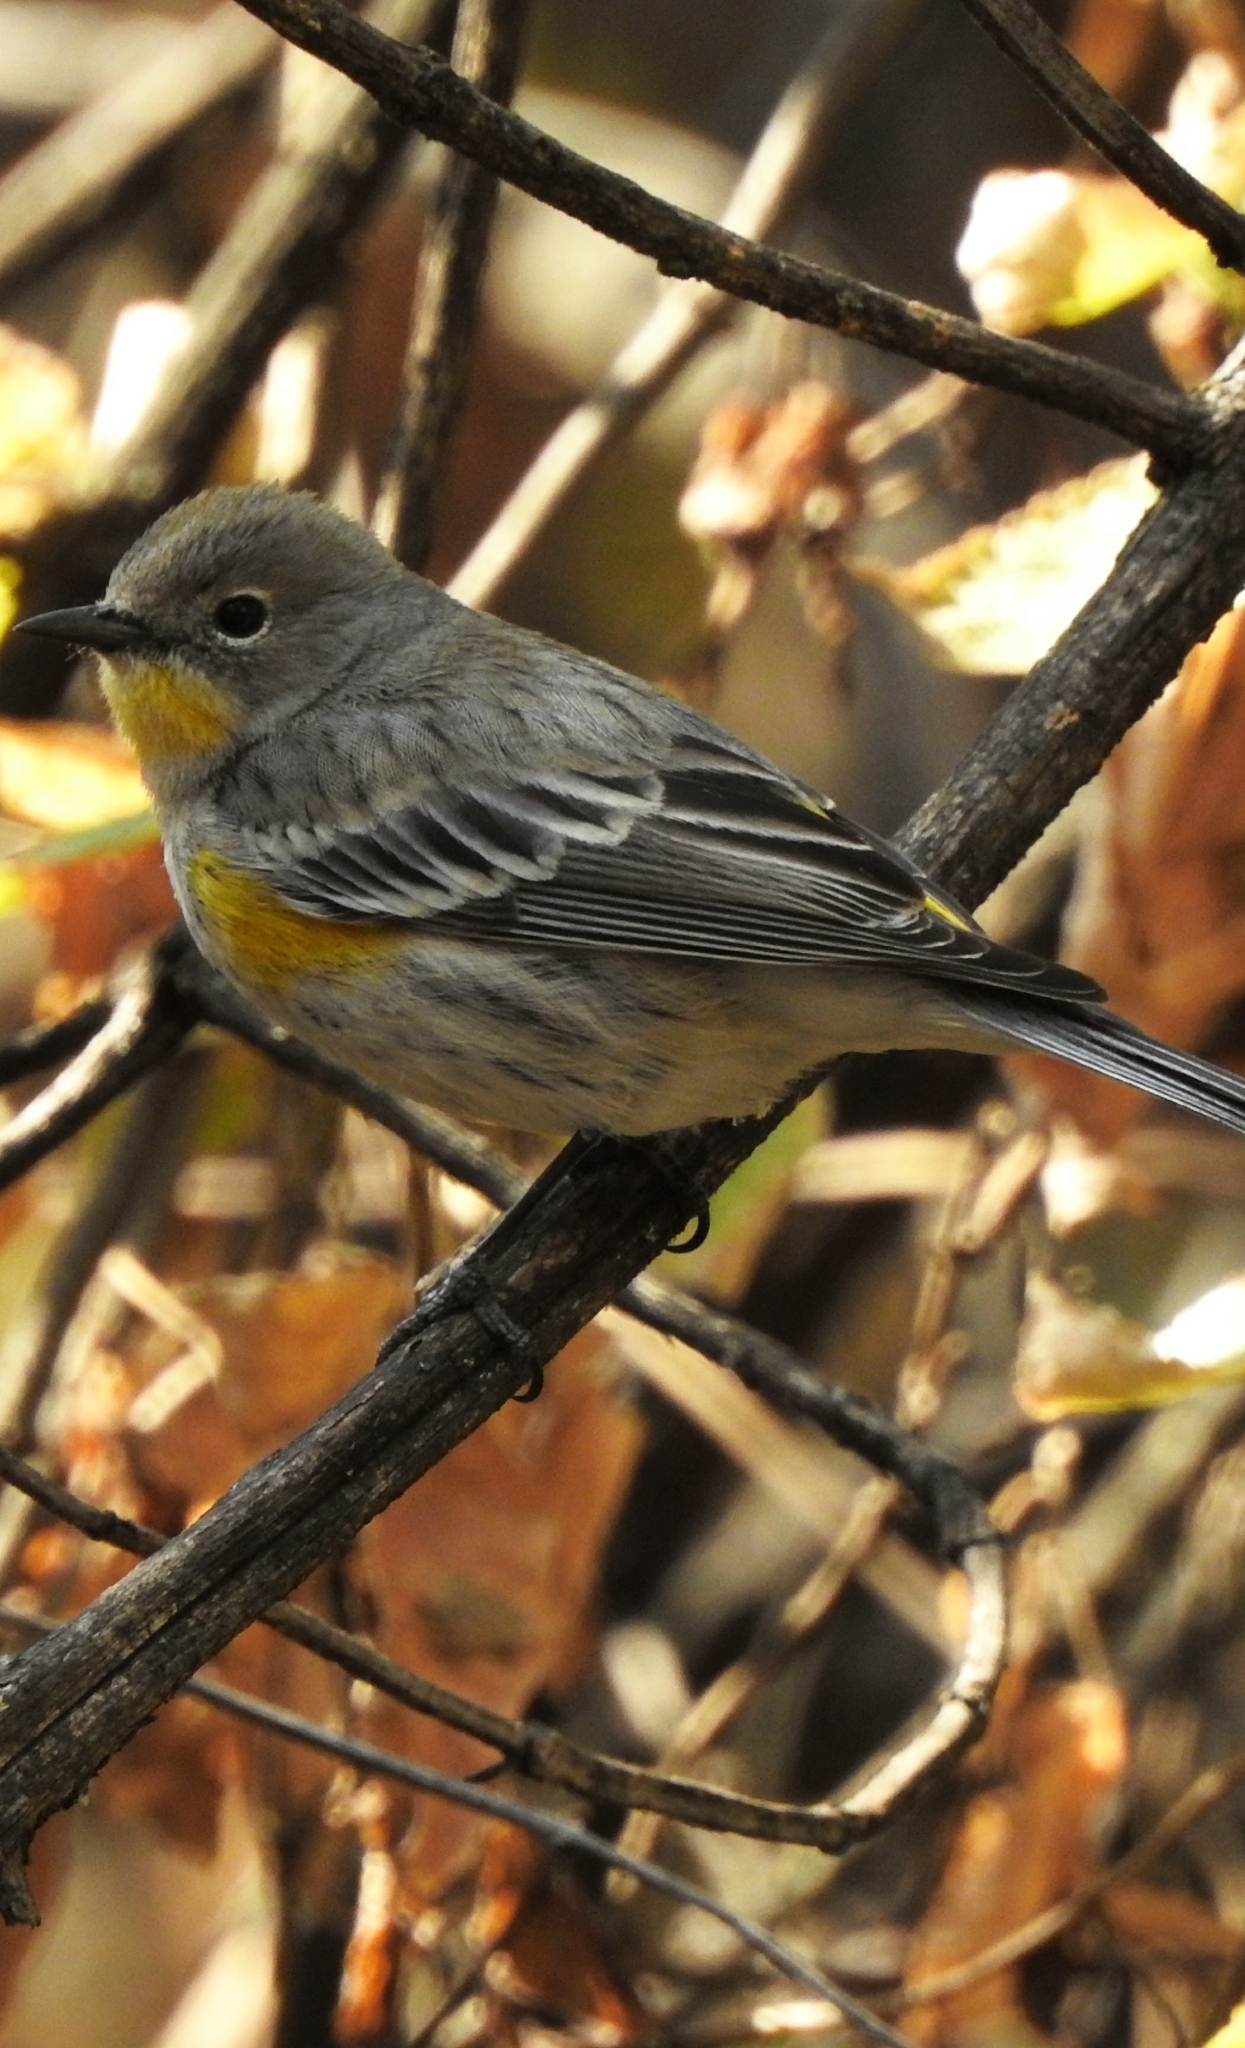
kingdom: Animalia
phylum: Chordata
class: Aves
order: Passeriformes
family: Parulidae
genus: Setophaga
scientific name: Setophaga coronata
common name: Myrtle warbler
